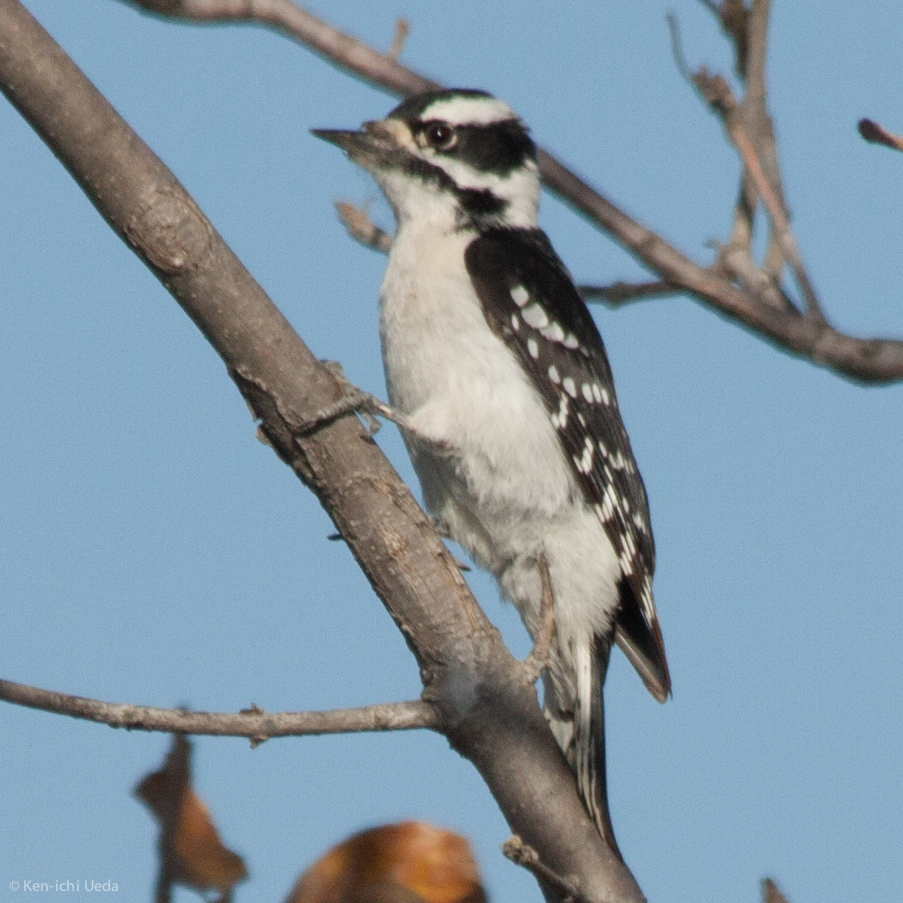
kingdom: Animalia
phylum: Chordata
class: Aves
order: Piciformes
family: Picidae
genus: Dryobates
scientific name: Dryobates pubescens
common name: Downy woodpecker
